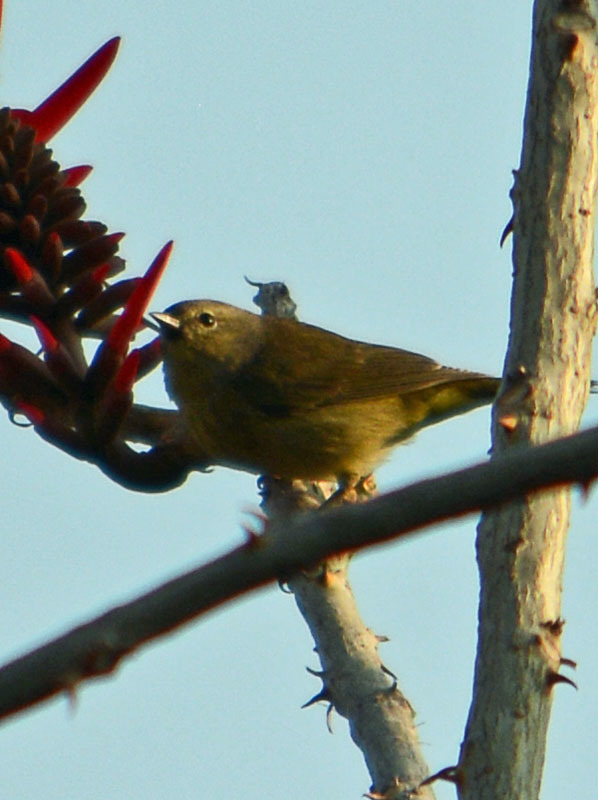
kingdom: Animalia
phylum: Chordata
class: Aves
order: Passeriformes
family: Parulidae
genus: Leiothlypis
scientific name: Leiothlypis celata
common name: Orange-crowned warbler
